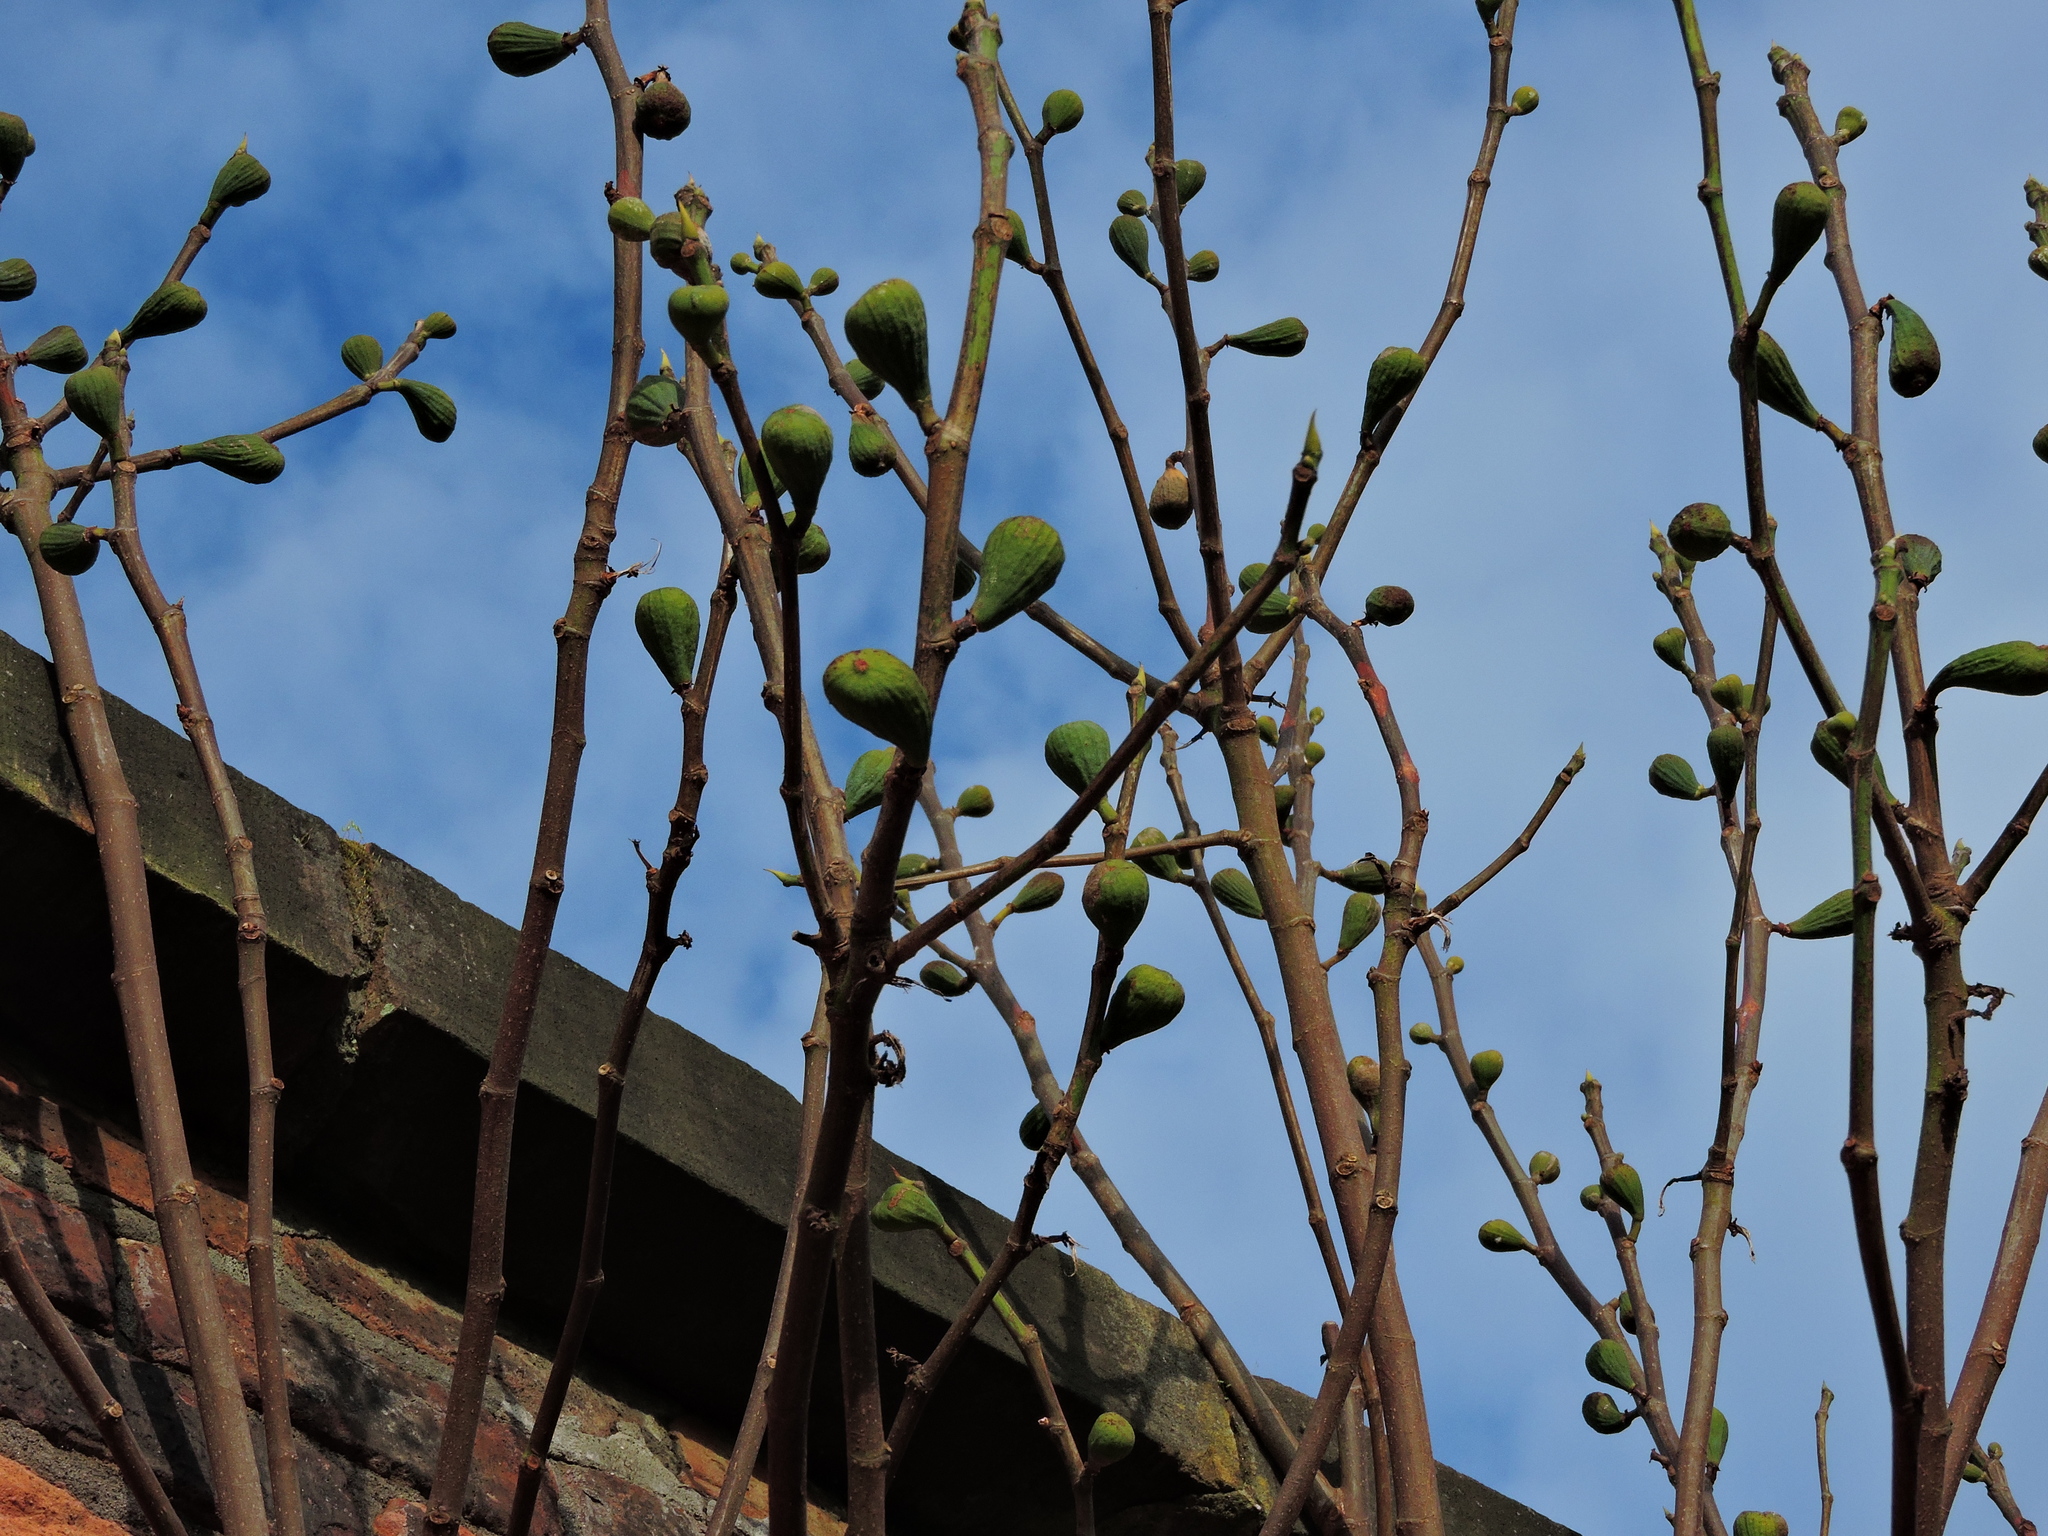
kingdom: Plantae
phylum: Tracheophyta
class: Magnoliopsida
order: Rosales
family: Moraceae
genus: Ficus
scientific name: Ficus carica
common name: Fig
